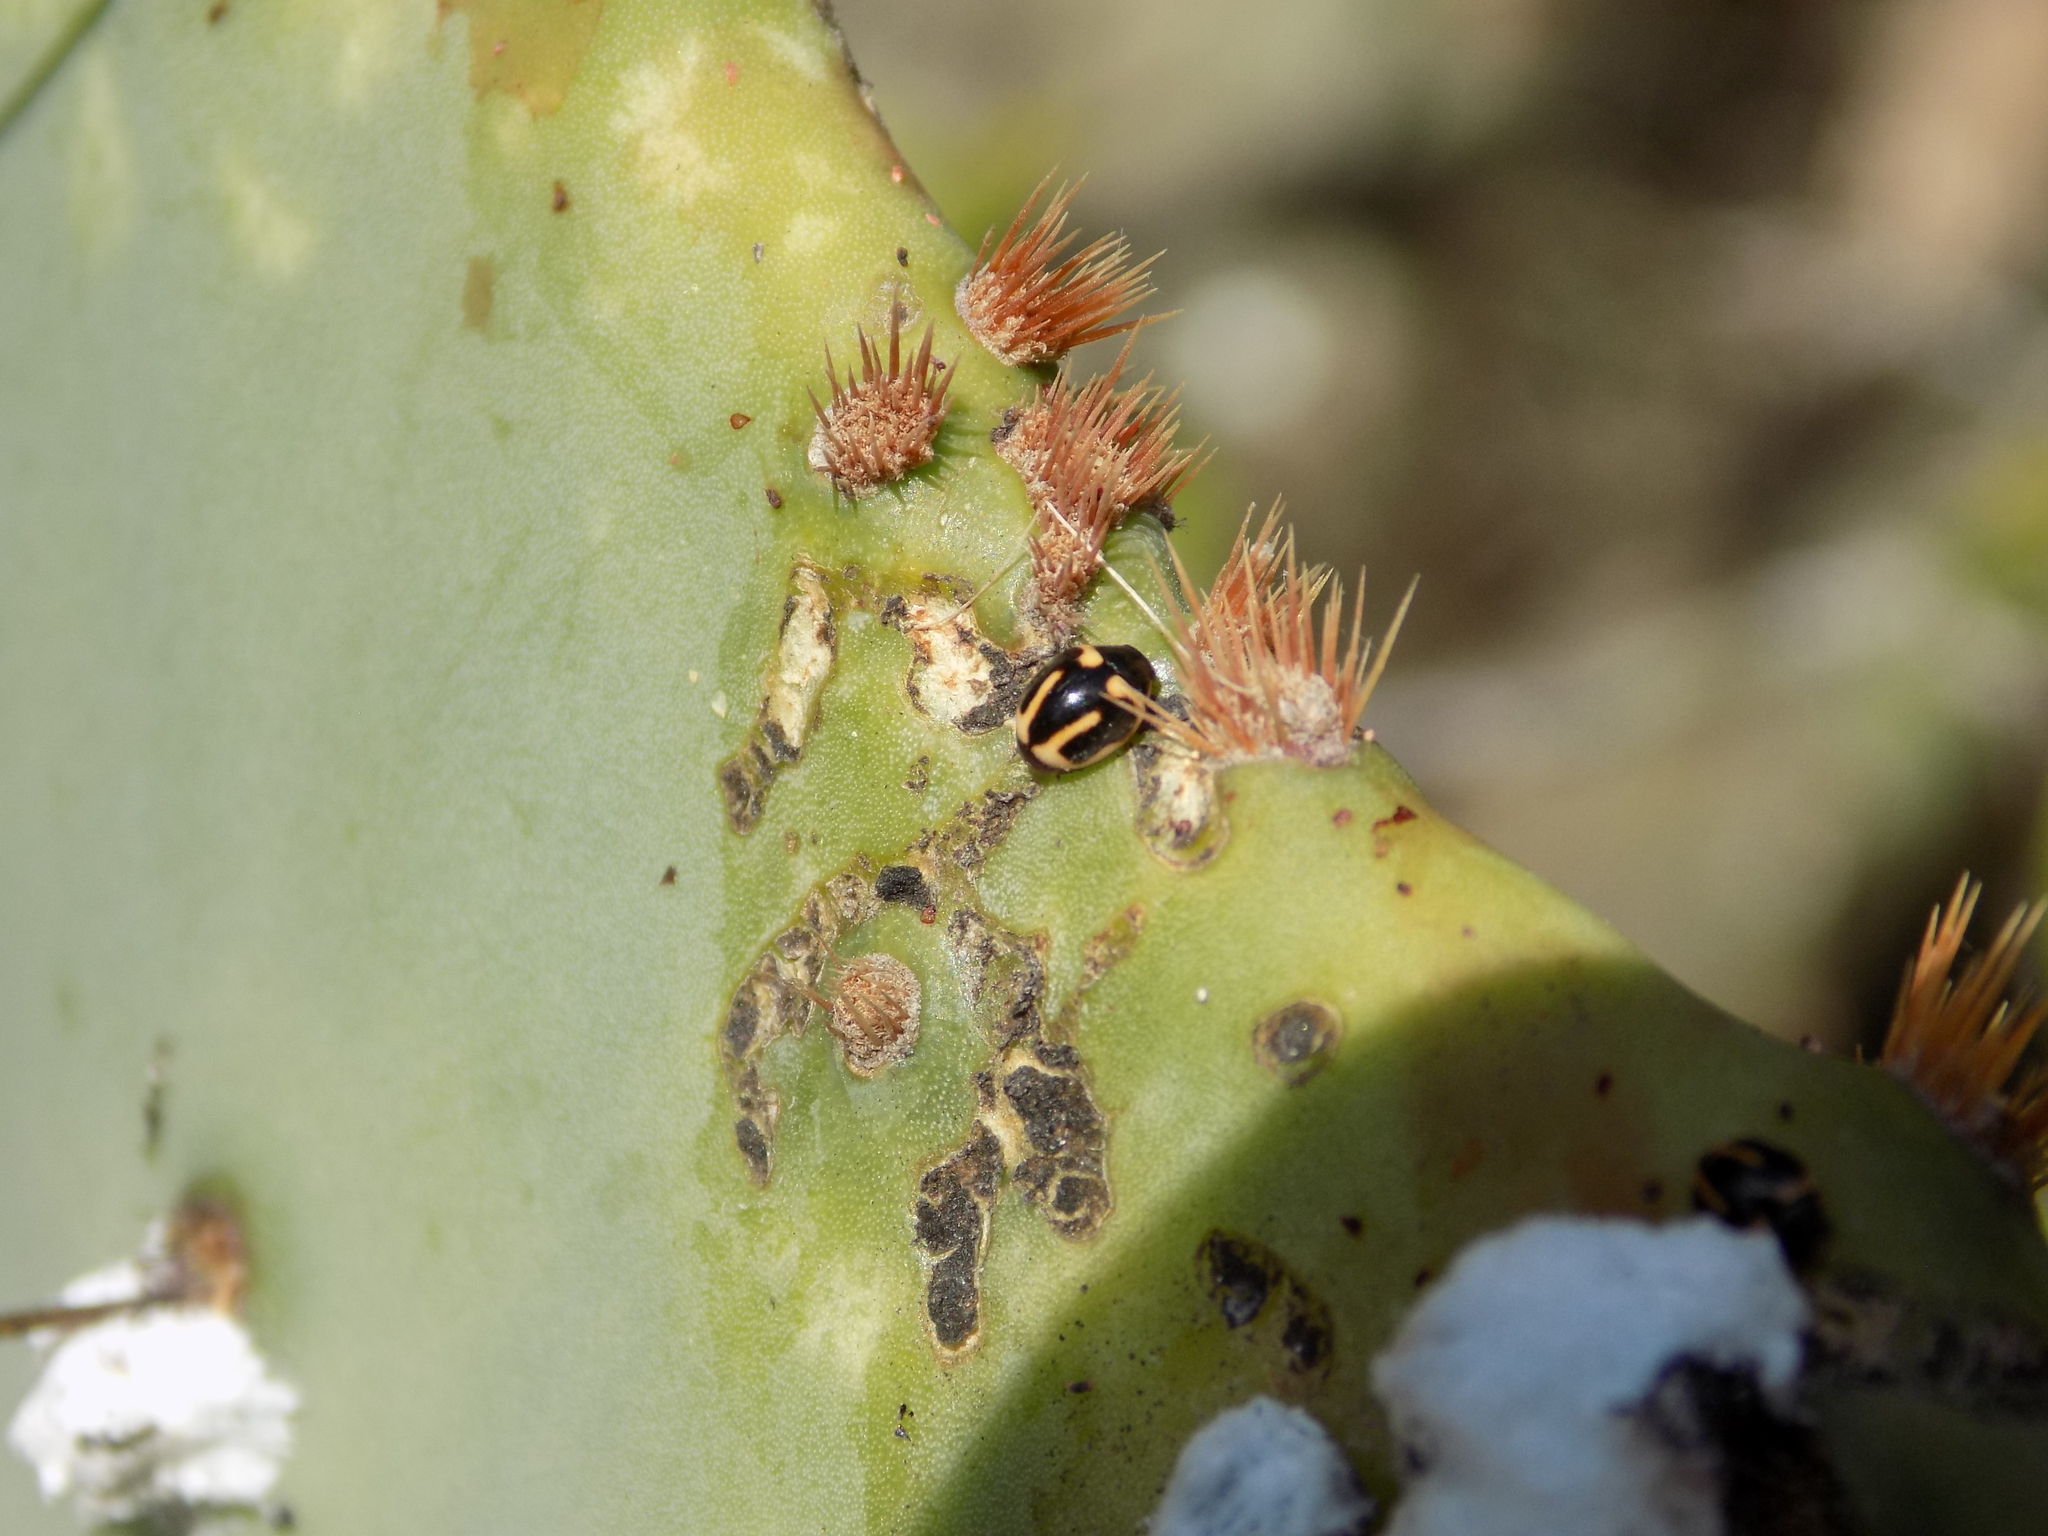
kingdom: Animalia
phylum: Arthropoda
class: Insecta
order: Coleoptera
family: Coccinellidae
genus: Hyperaspis
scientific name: Hyperaspis trifurcata
